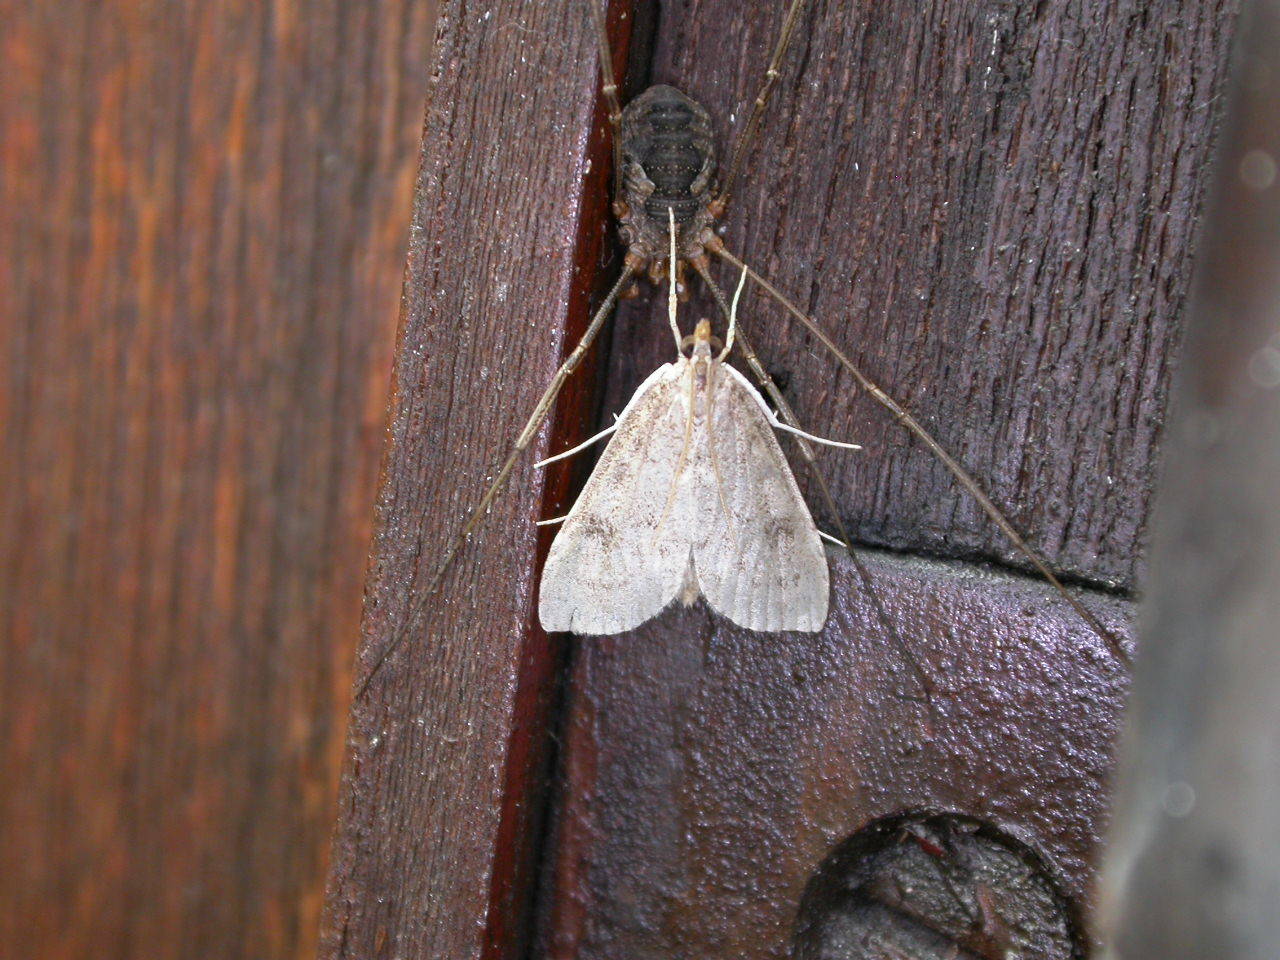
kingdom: Animalia
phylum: Arthropoda
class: Insecta
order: Lepidoptera
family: Crambidae
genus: Udea
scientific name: Udea prunalis
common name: Dusky pearl
